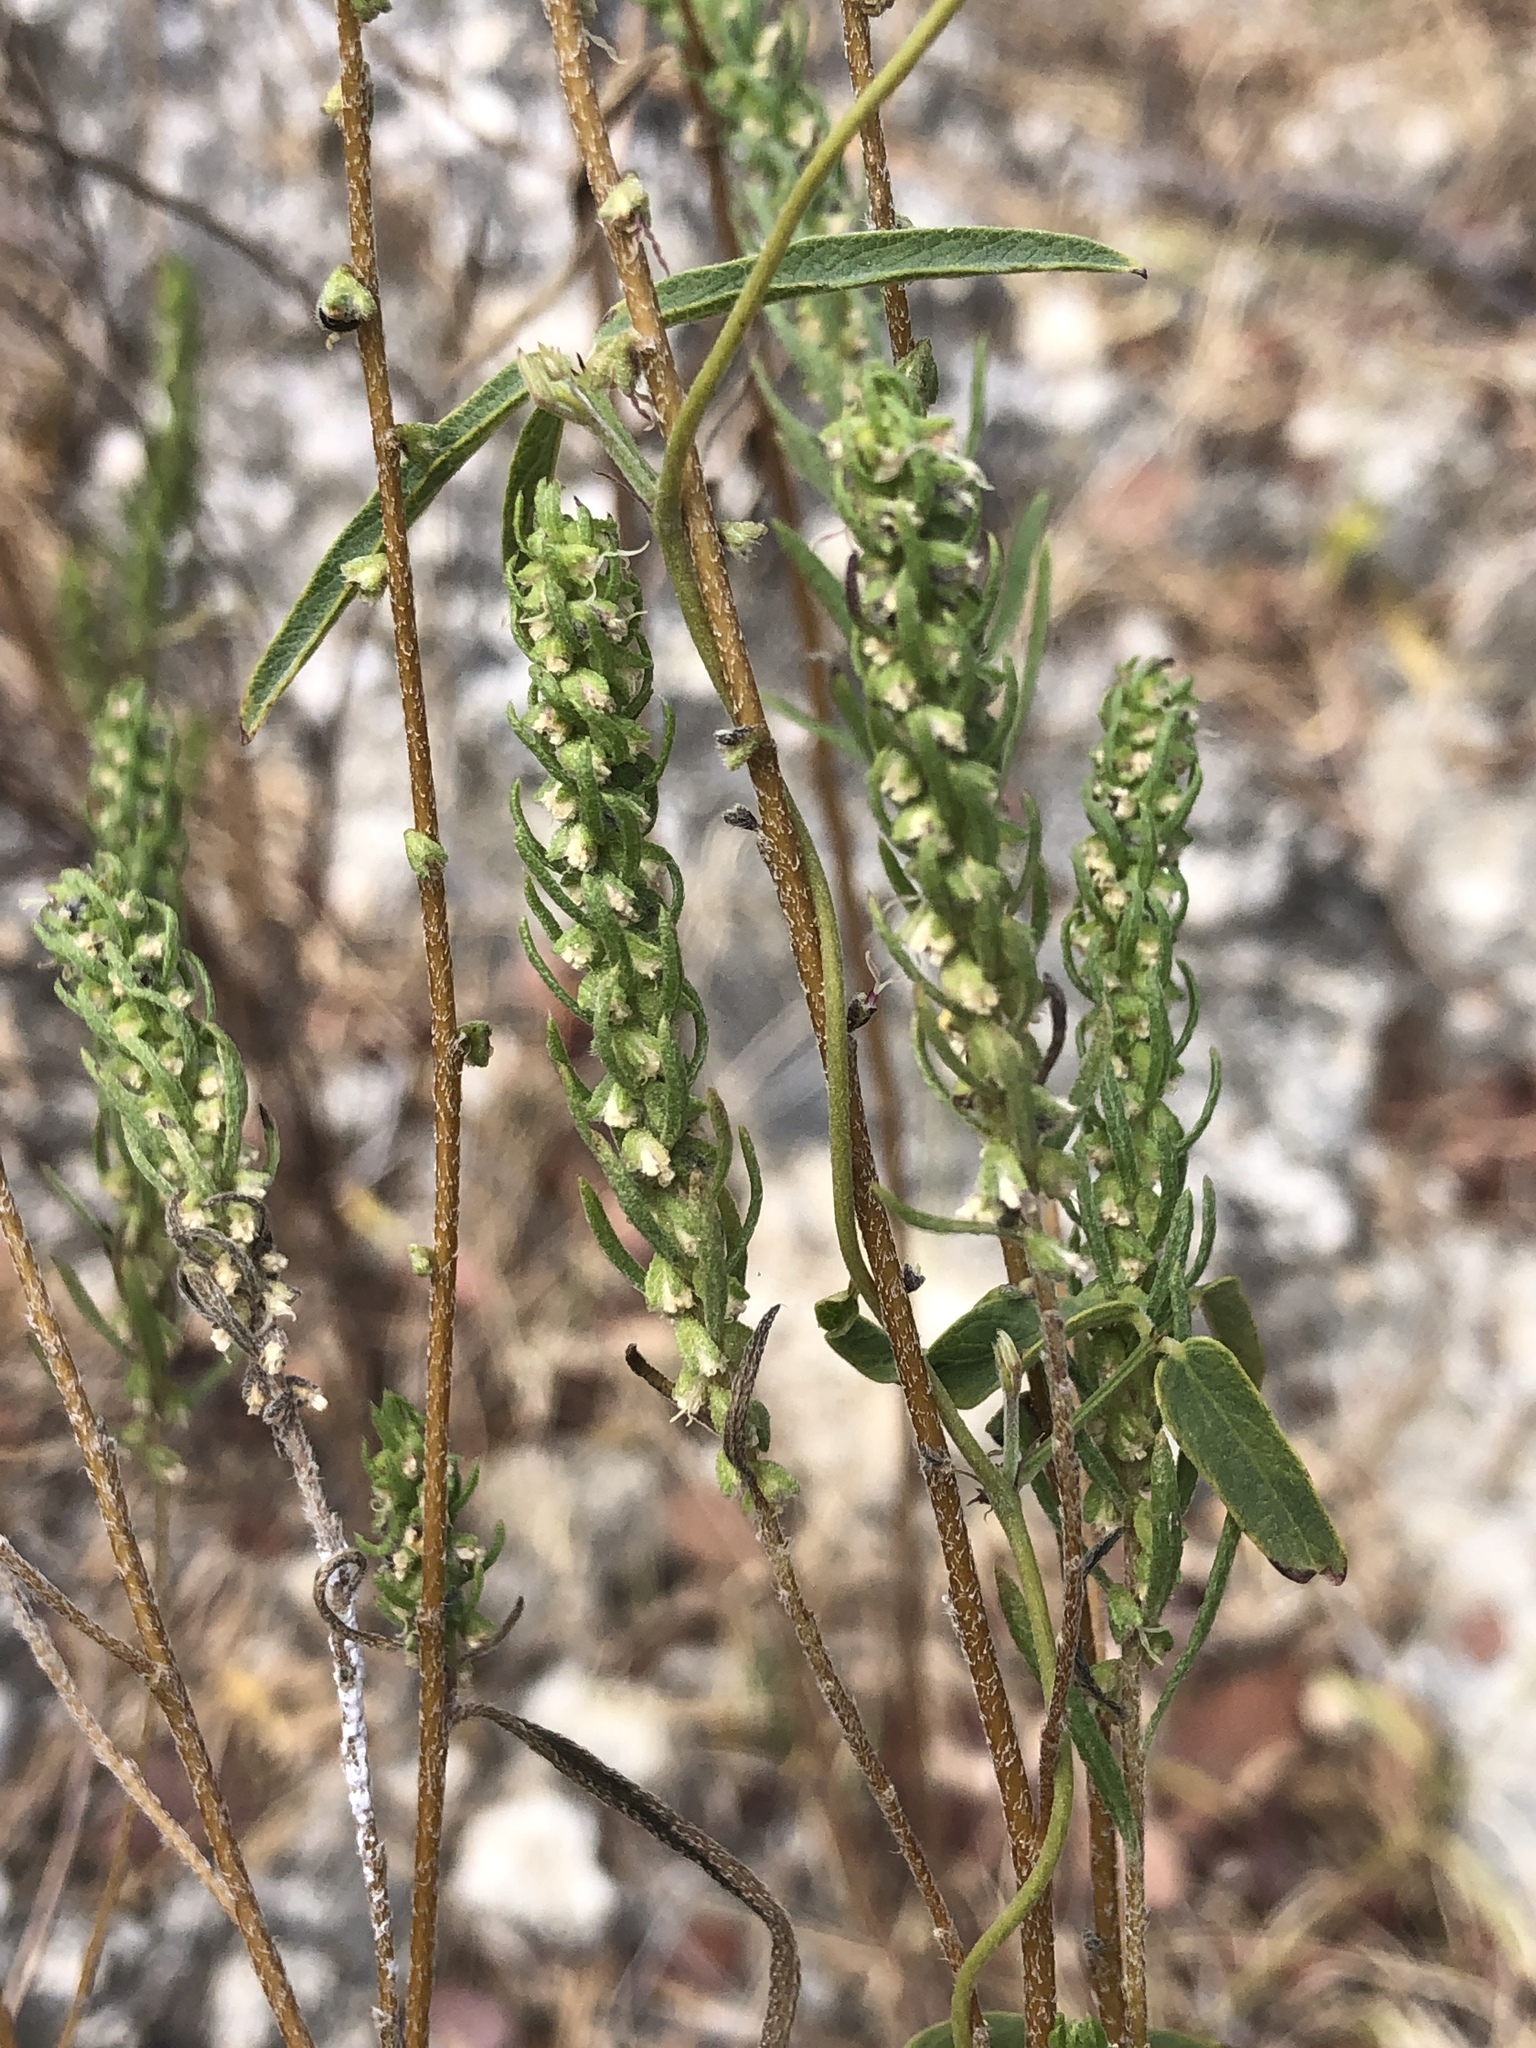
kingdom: Plantae
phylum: Tracheophyta
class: Magnoliopsida
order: Asterales
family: Asteraceae
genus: Iva
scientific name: Iva annua
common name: Marsh-elder
